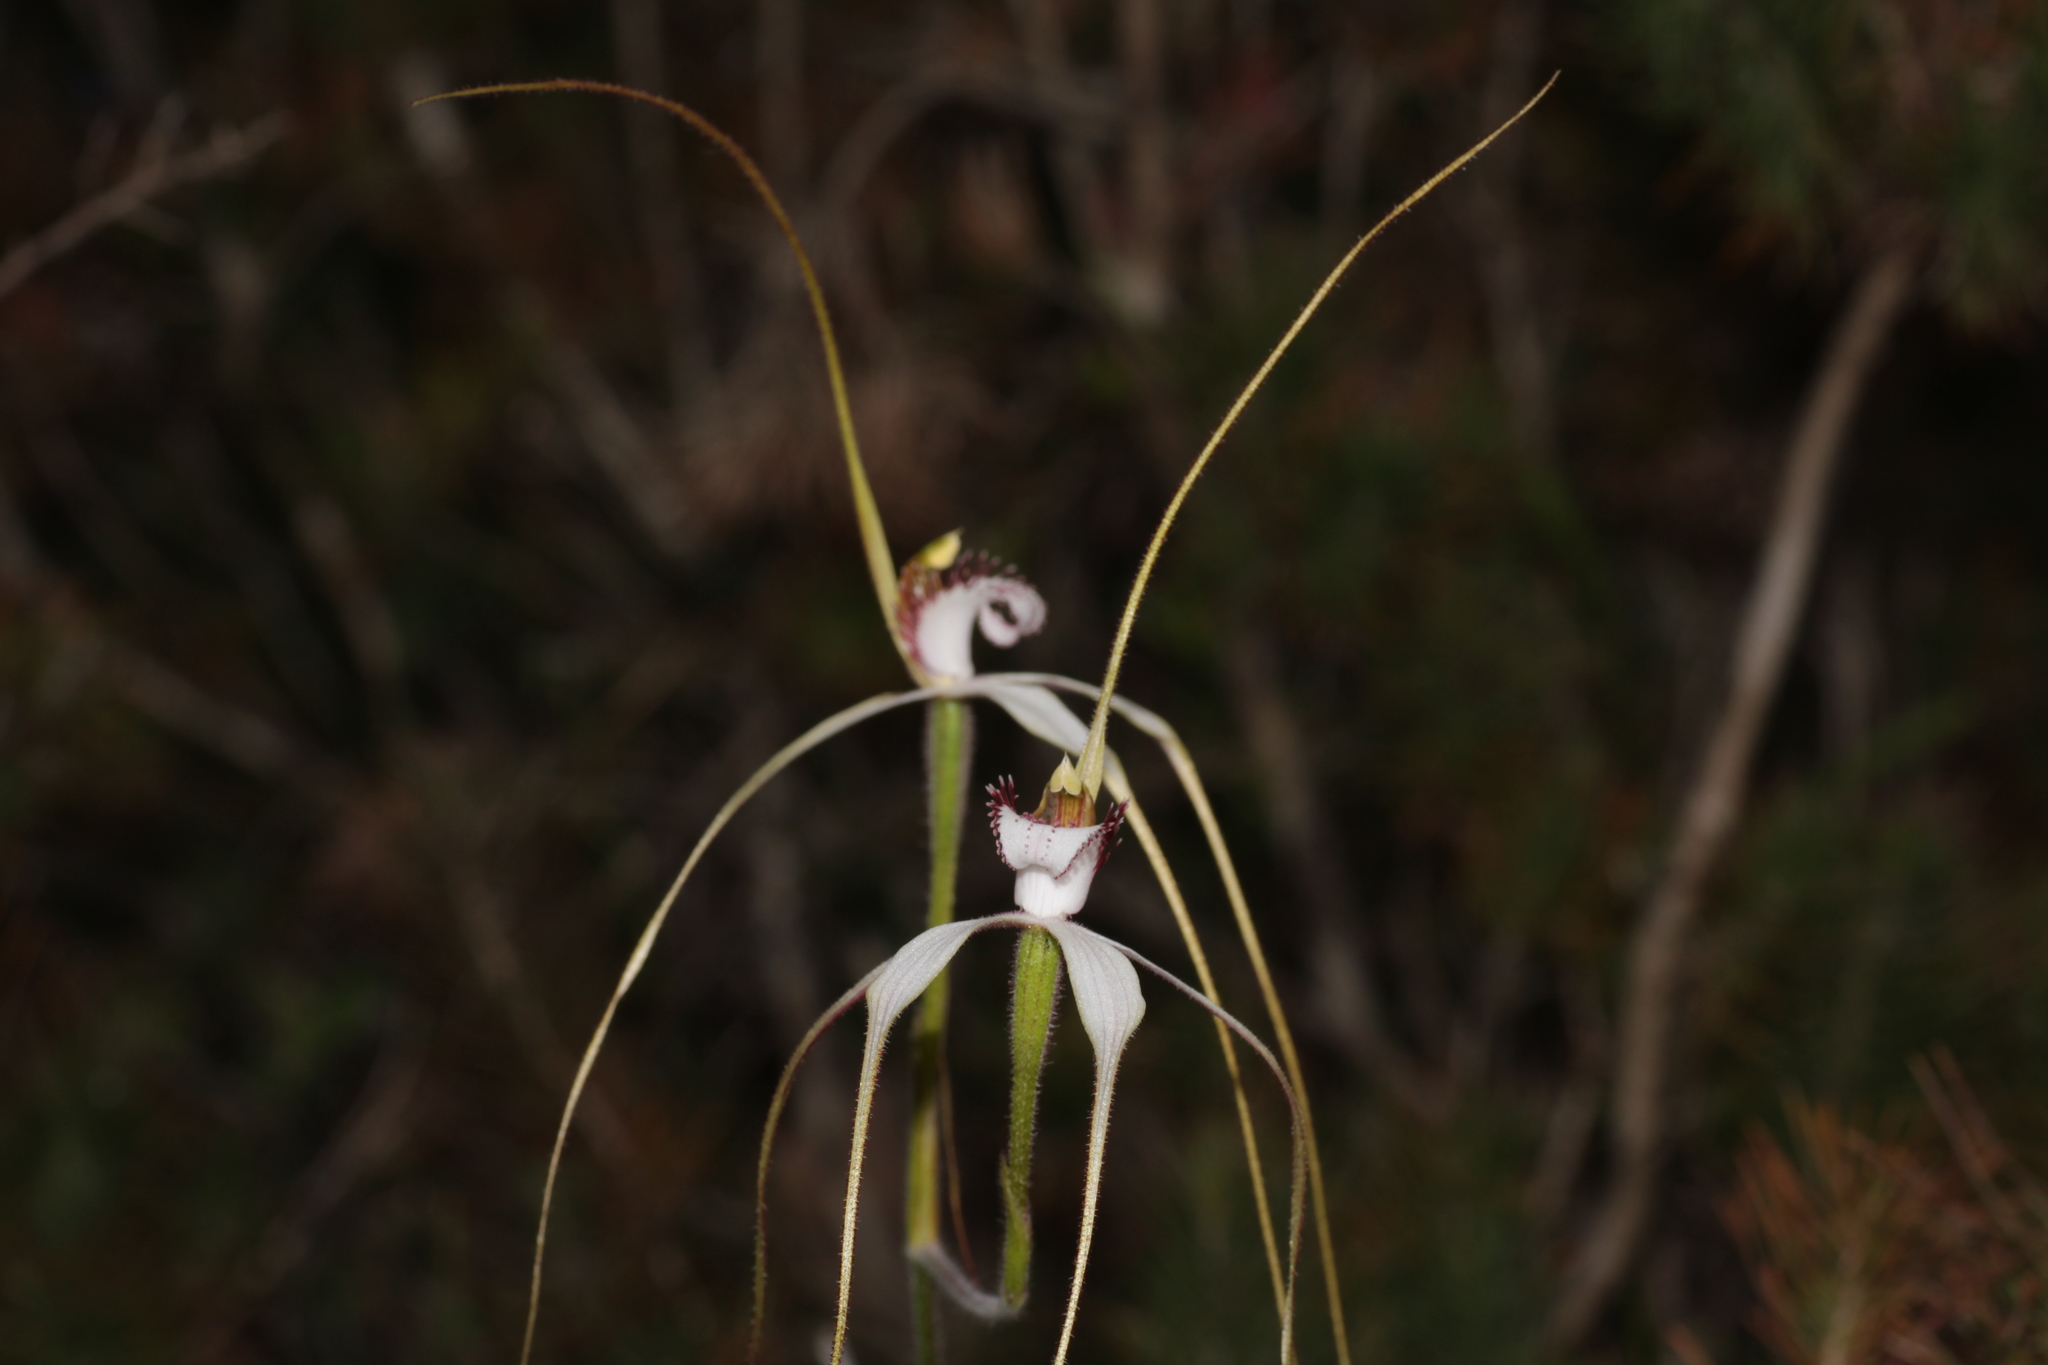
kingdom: Plantae
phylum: Tracheophyta
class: Liliopsida
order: Asparagales
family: Orchidaceae
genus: Caladenia
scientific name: Caladenia longicauda
